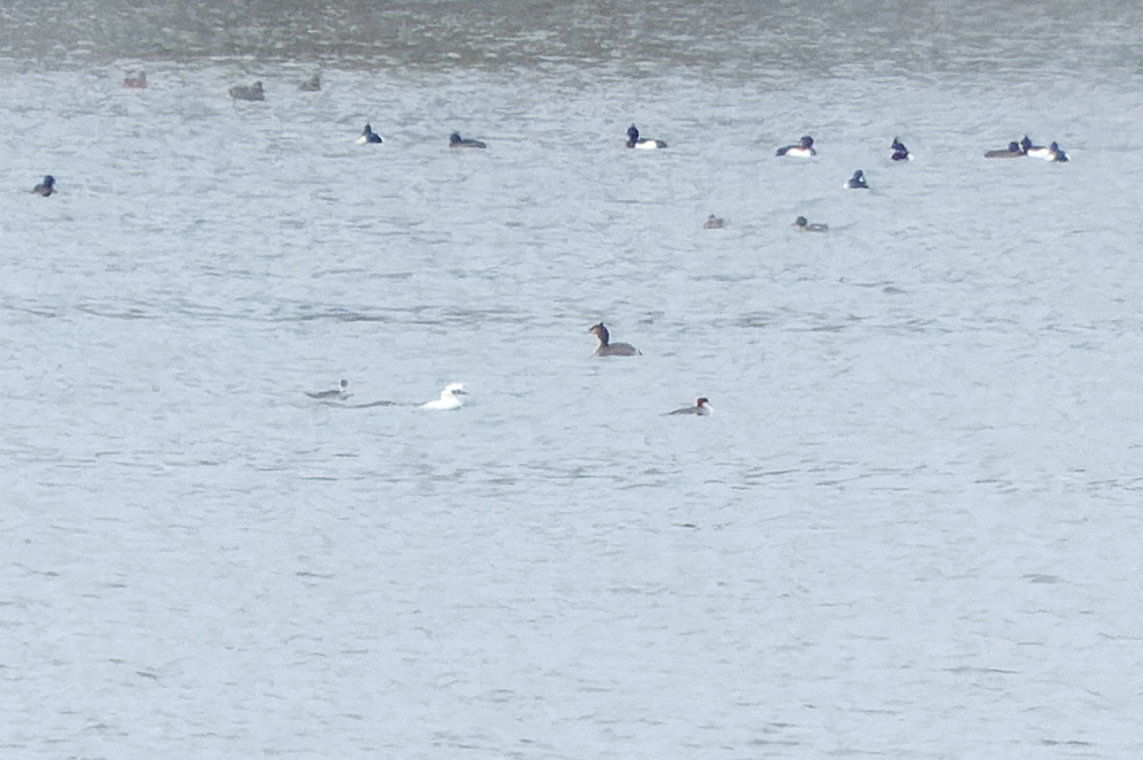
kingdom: Animalia
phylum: Chordata
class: Aves
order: Anseriformes
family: Anatidae
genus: Mergellus
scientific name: Mergellus albellus
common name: Smew
